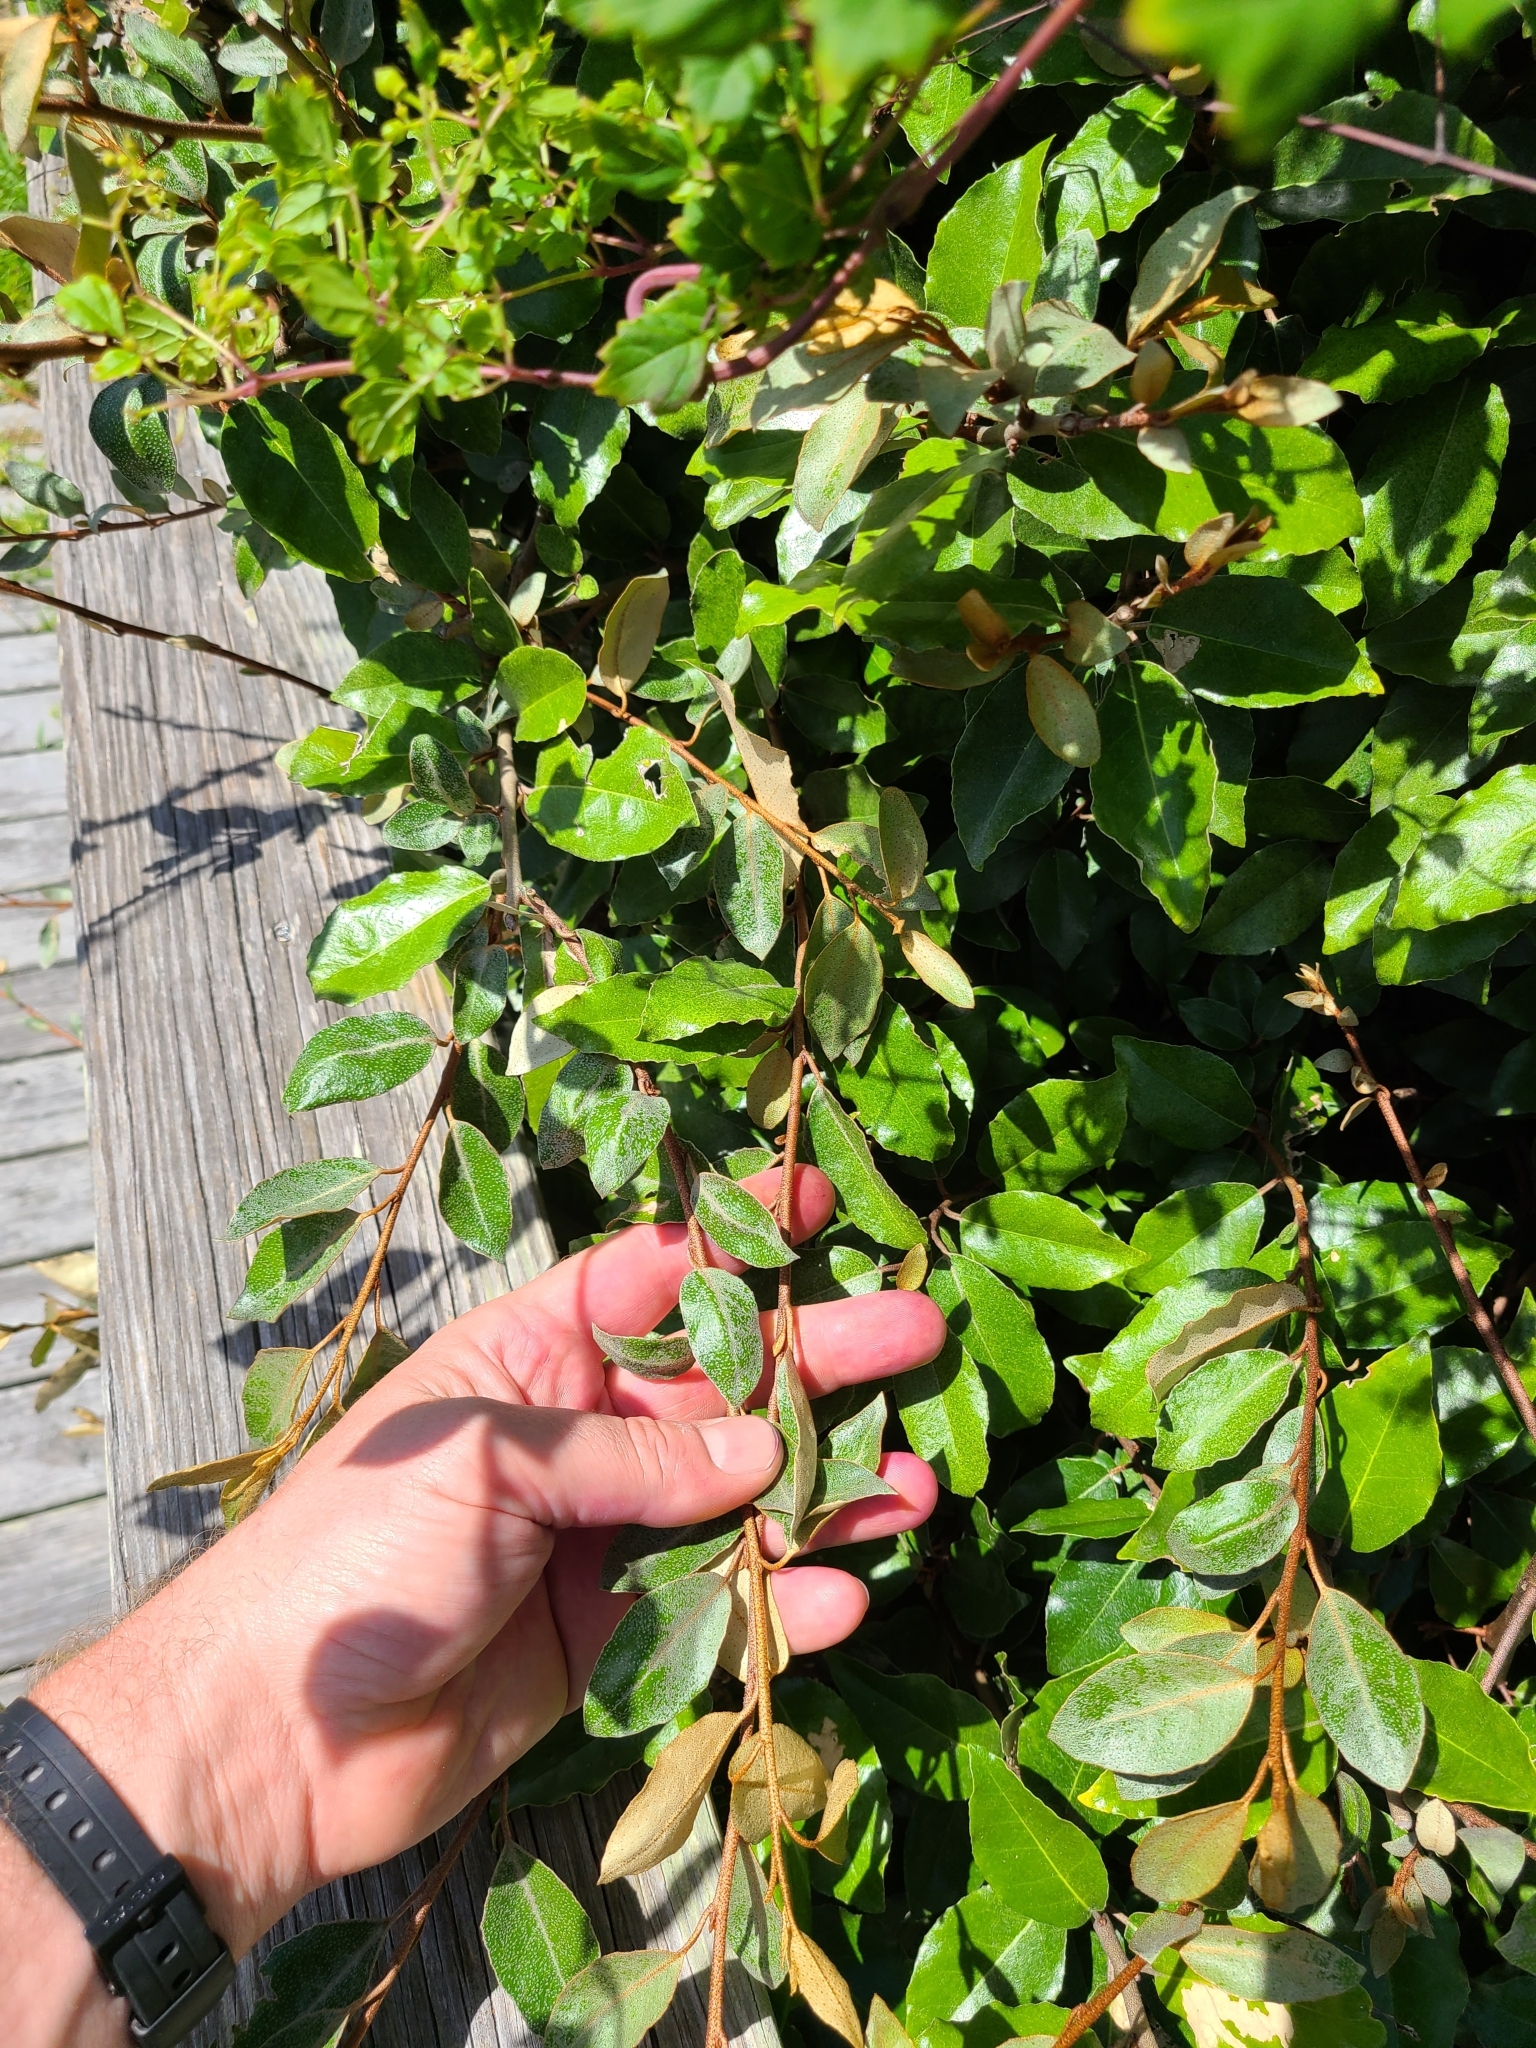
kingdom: Plantae
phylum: Tracheophyta
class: Magnoliopsida
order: Rosales
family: Elaeagnaceae
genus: Elaeagnus
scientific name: Elaeagnus pungens
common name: Spiny oleaster
